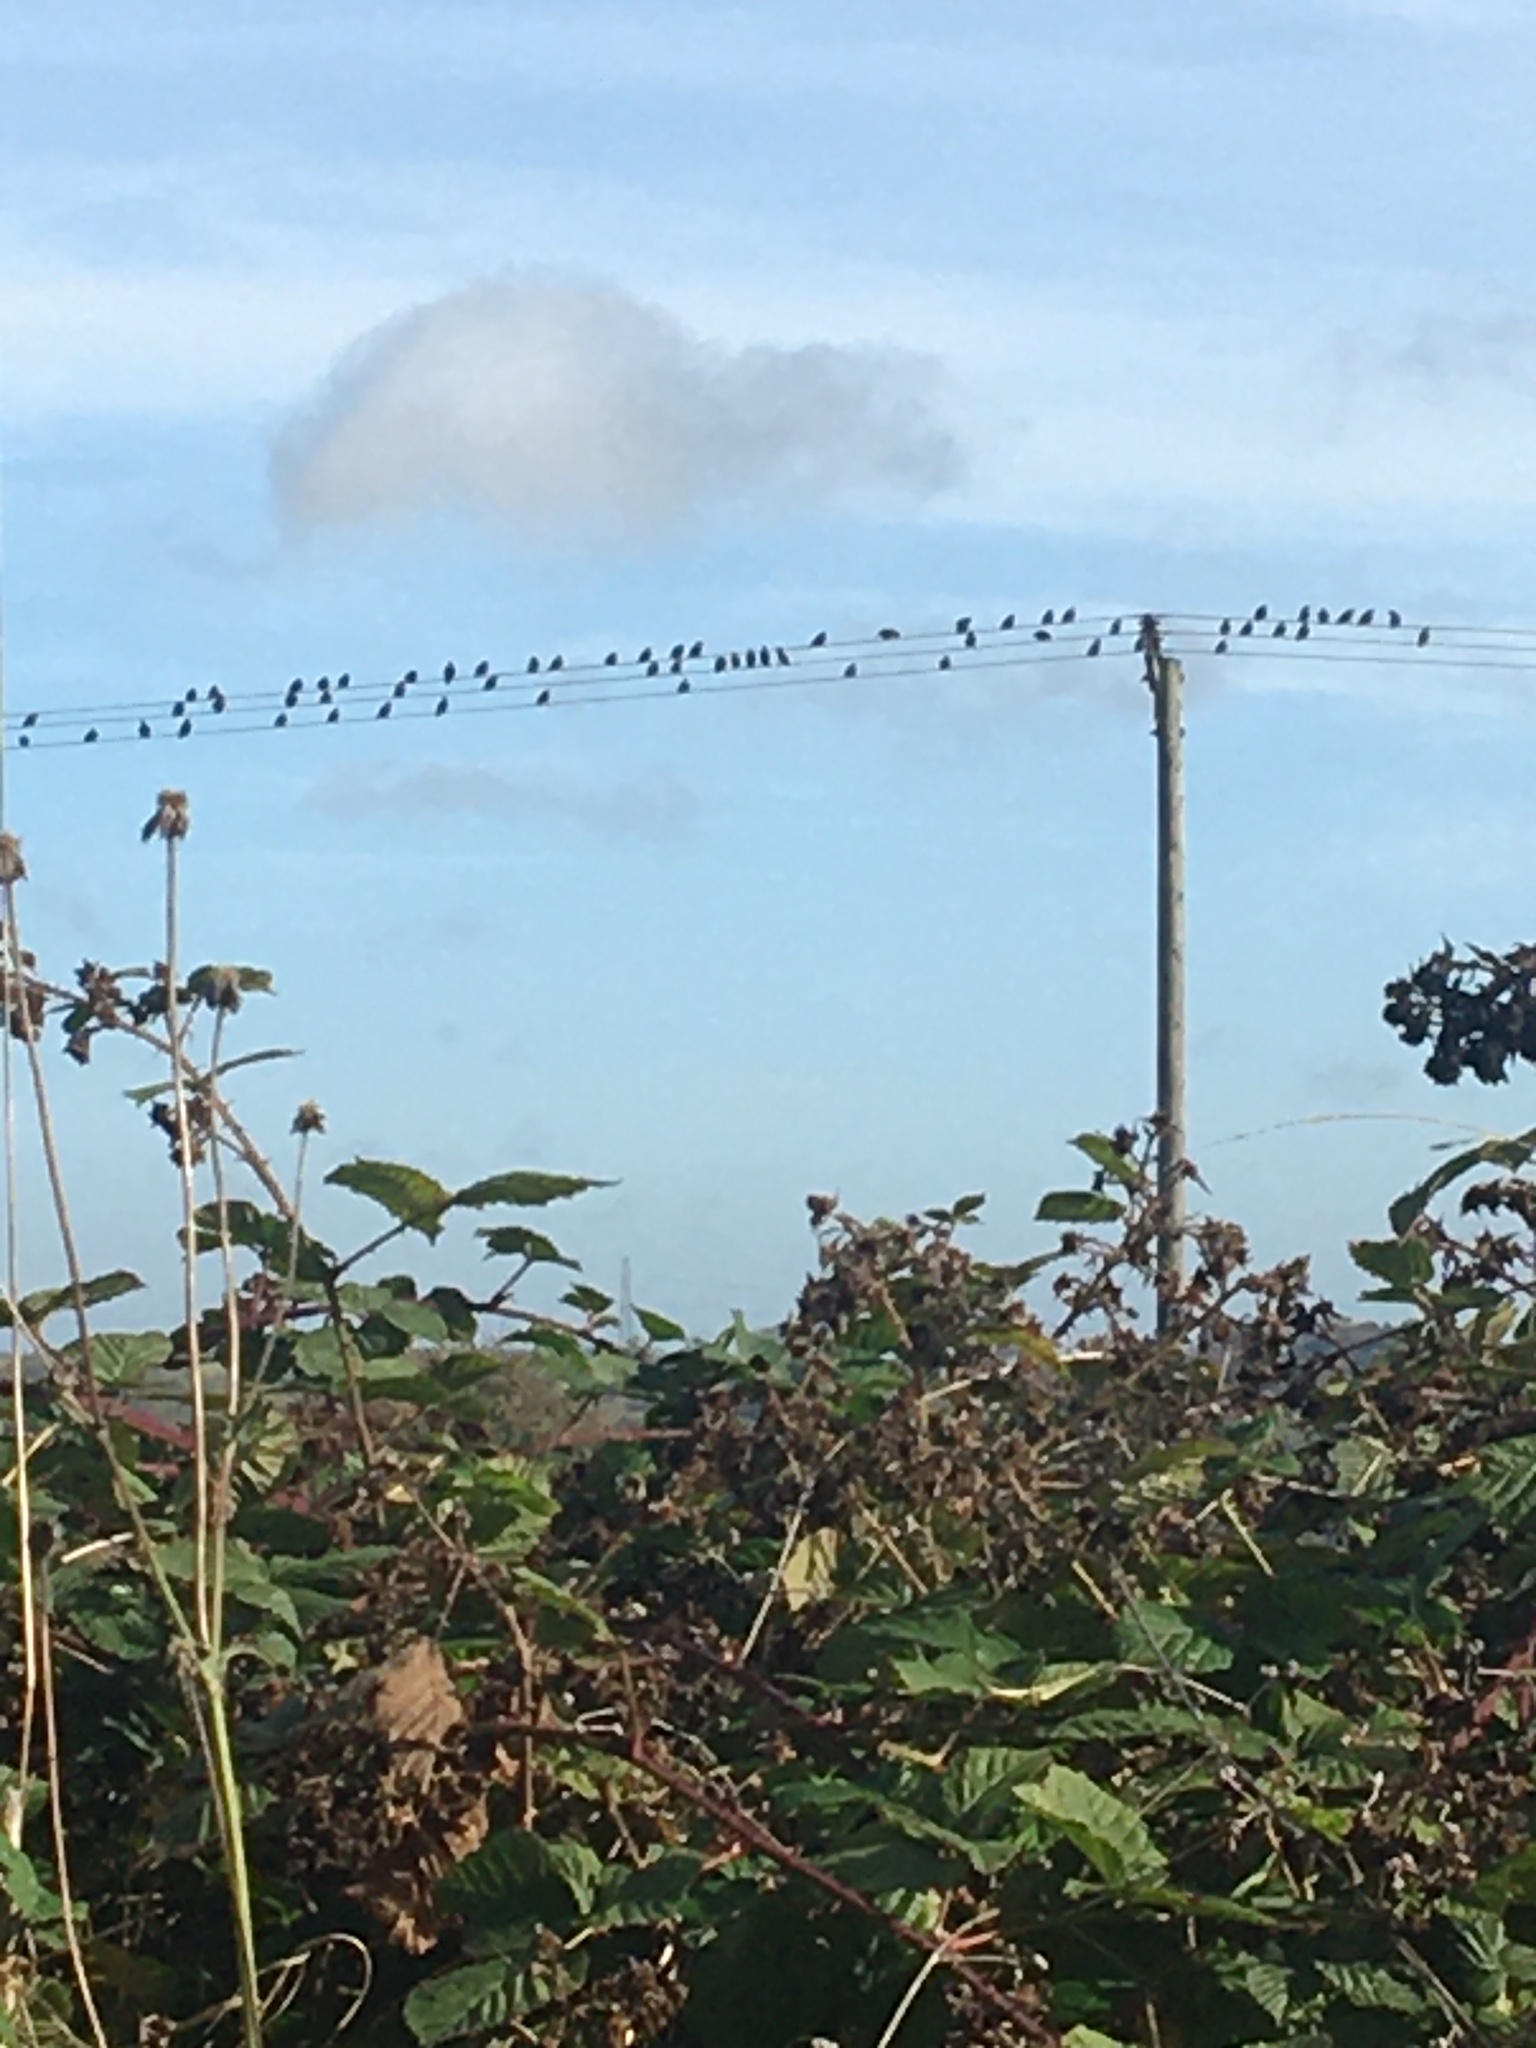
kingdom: Animalia
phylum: Chordata
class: Aves
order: Passeriformes
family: Sturnidae
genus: Sturnus
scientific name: Sturnus vulgaris
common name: Common starling
